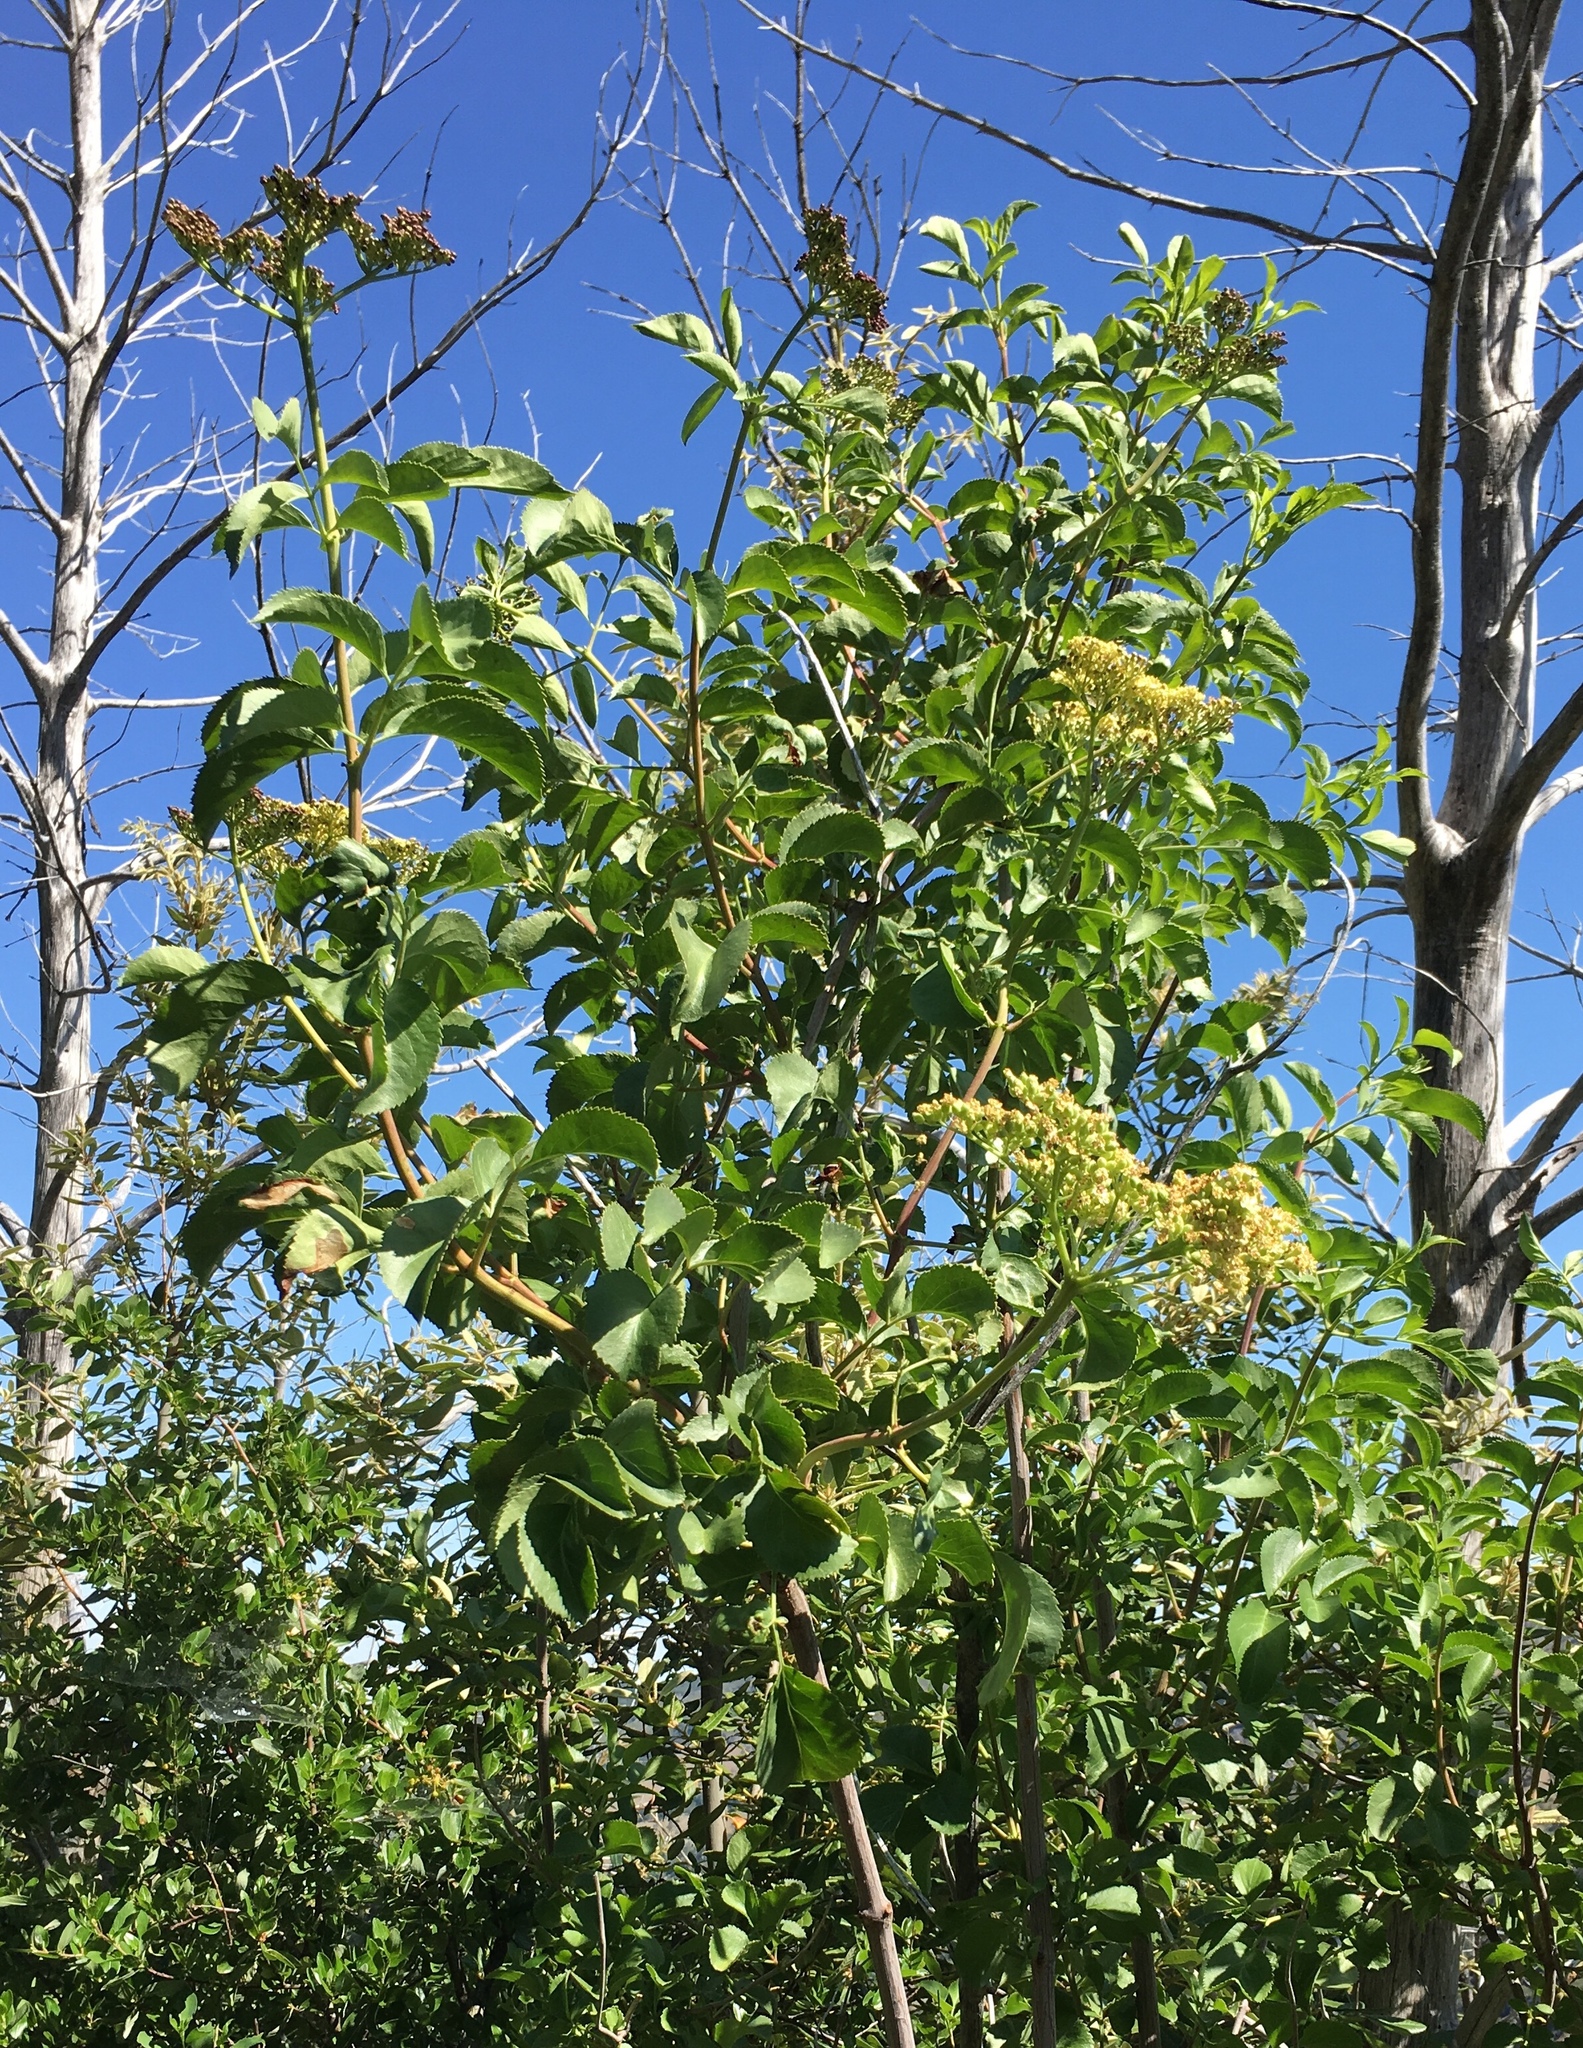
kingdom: Plantae
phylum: Tracheophyta
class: Magnoliopsida
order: Dipsacales
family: Viburnaceae
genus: Sambucus
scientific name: Sambucus cerulea
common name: Blue elder
